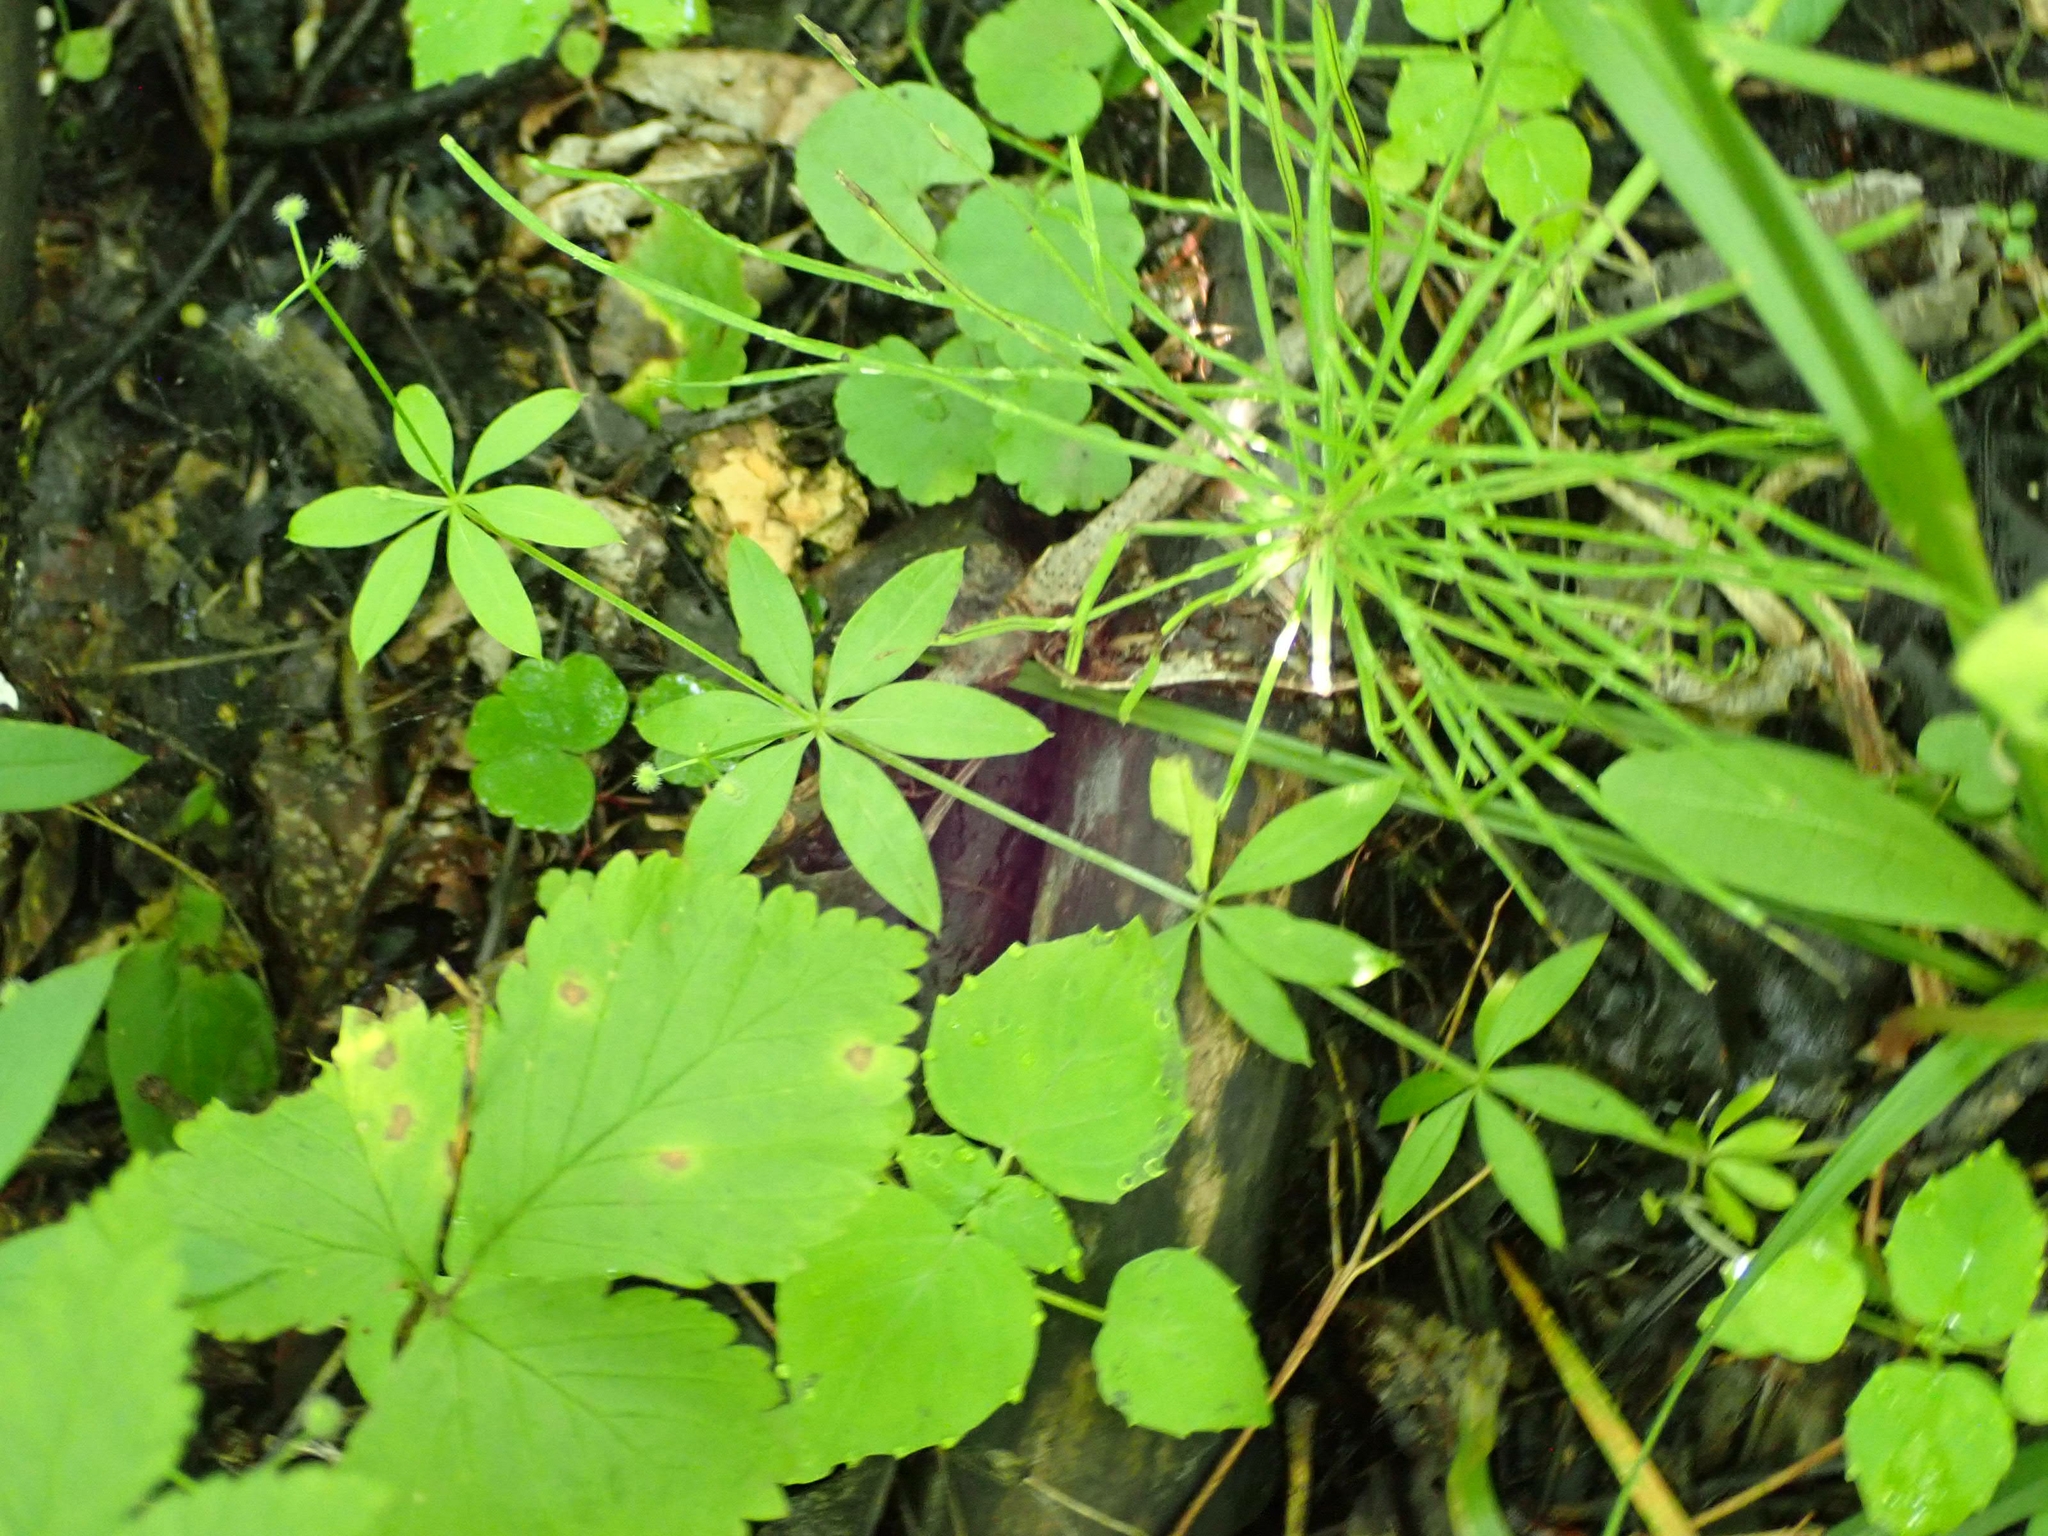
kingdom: Plantae
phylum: Tracheophyta
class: Magnoliopsida
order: Gentianales
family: Rubiaceae
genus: Galium
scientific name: Galium triflorum
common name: Fragrant bedstraw
